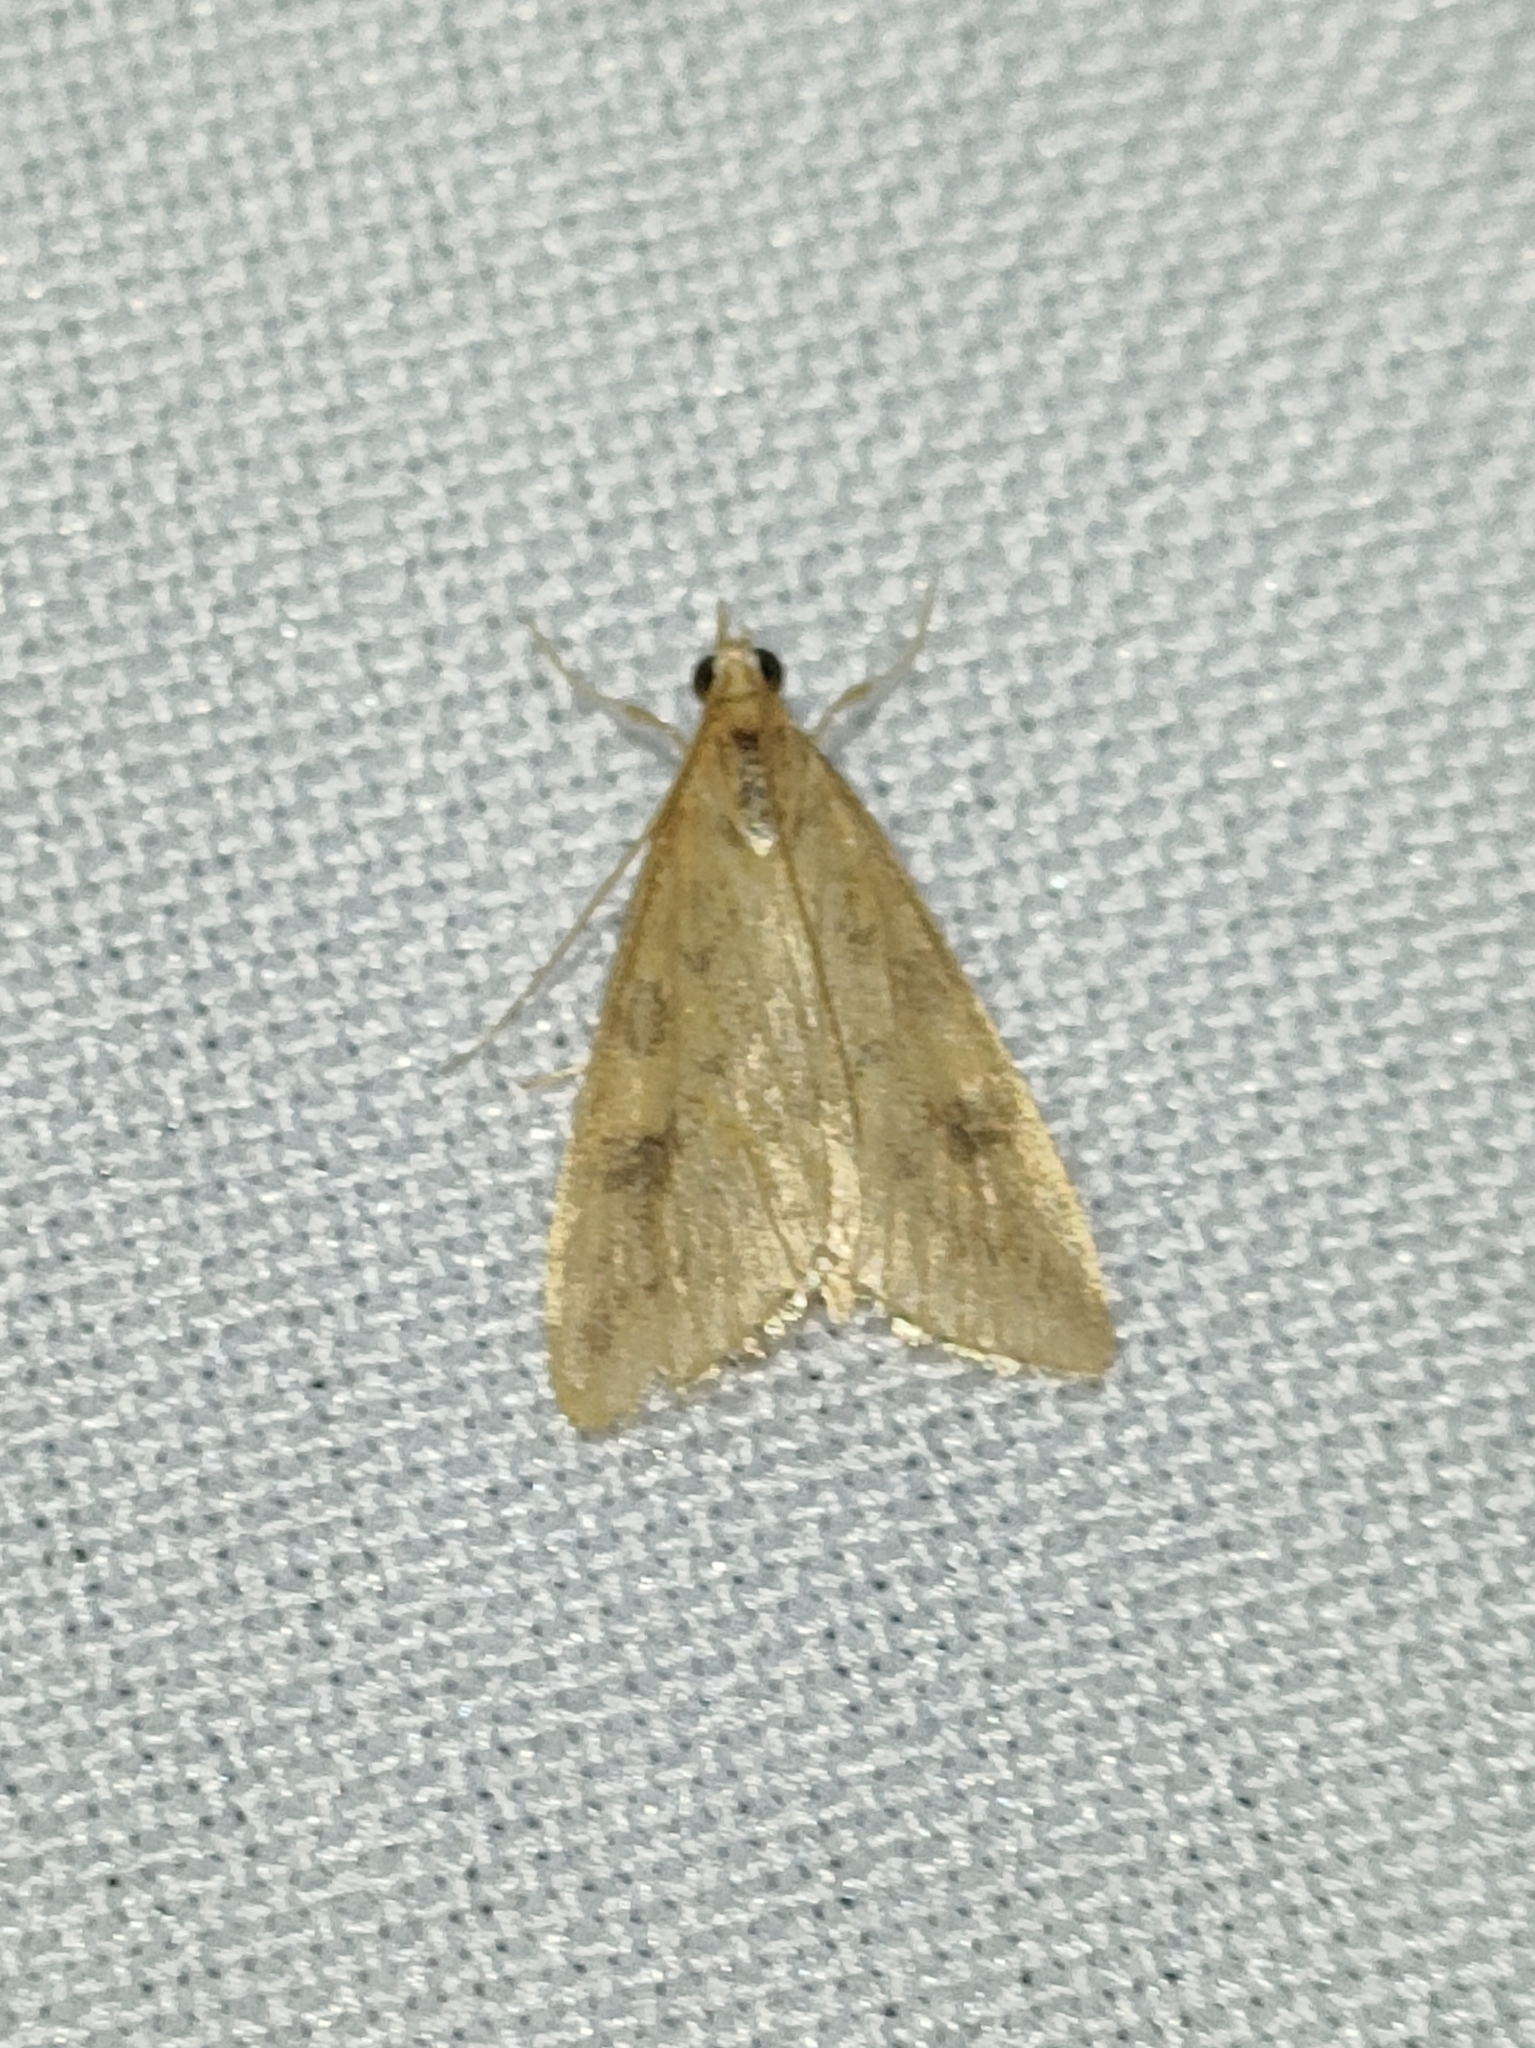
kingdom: Animalia
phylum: Arthropoda
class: Insecta
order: Lepidoptera
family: Crambidae
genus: Udea
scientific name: Udea ferrugalis
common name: Rusty dot
